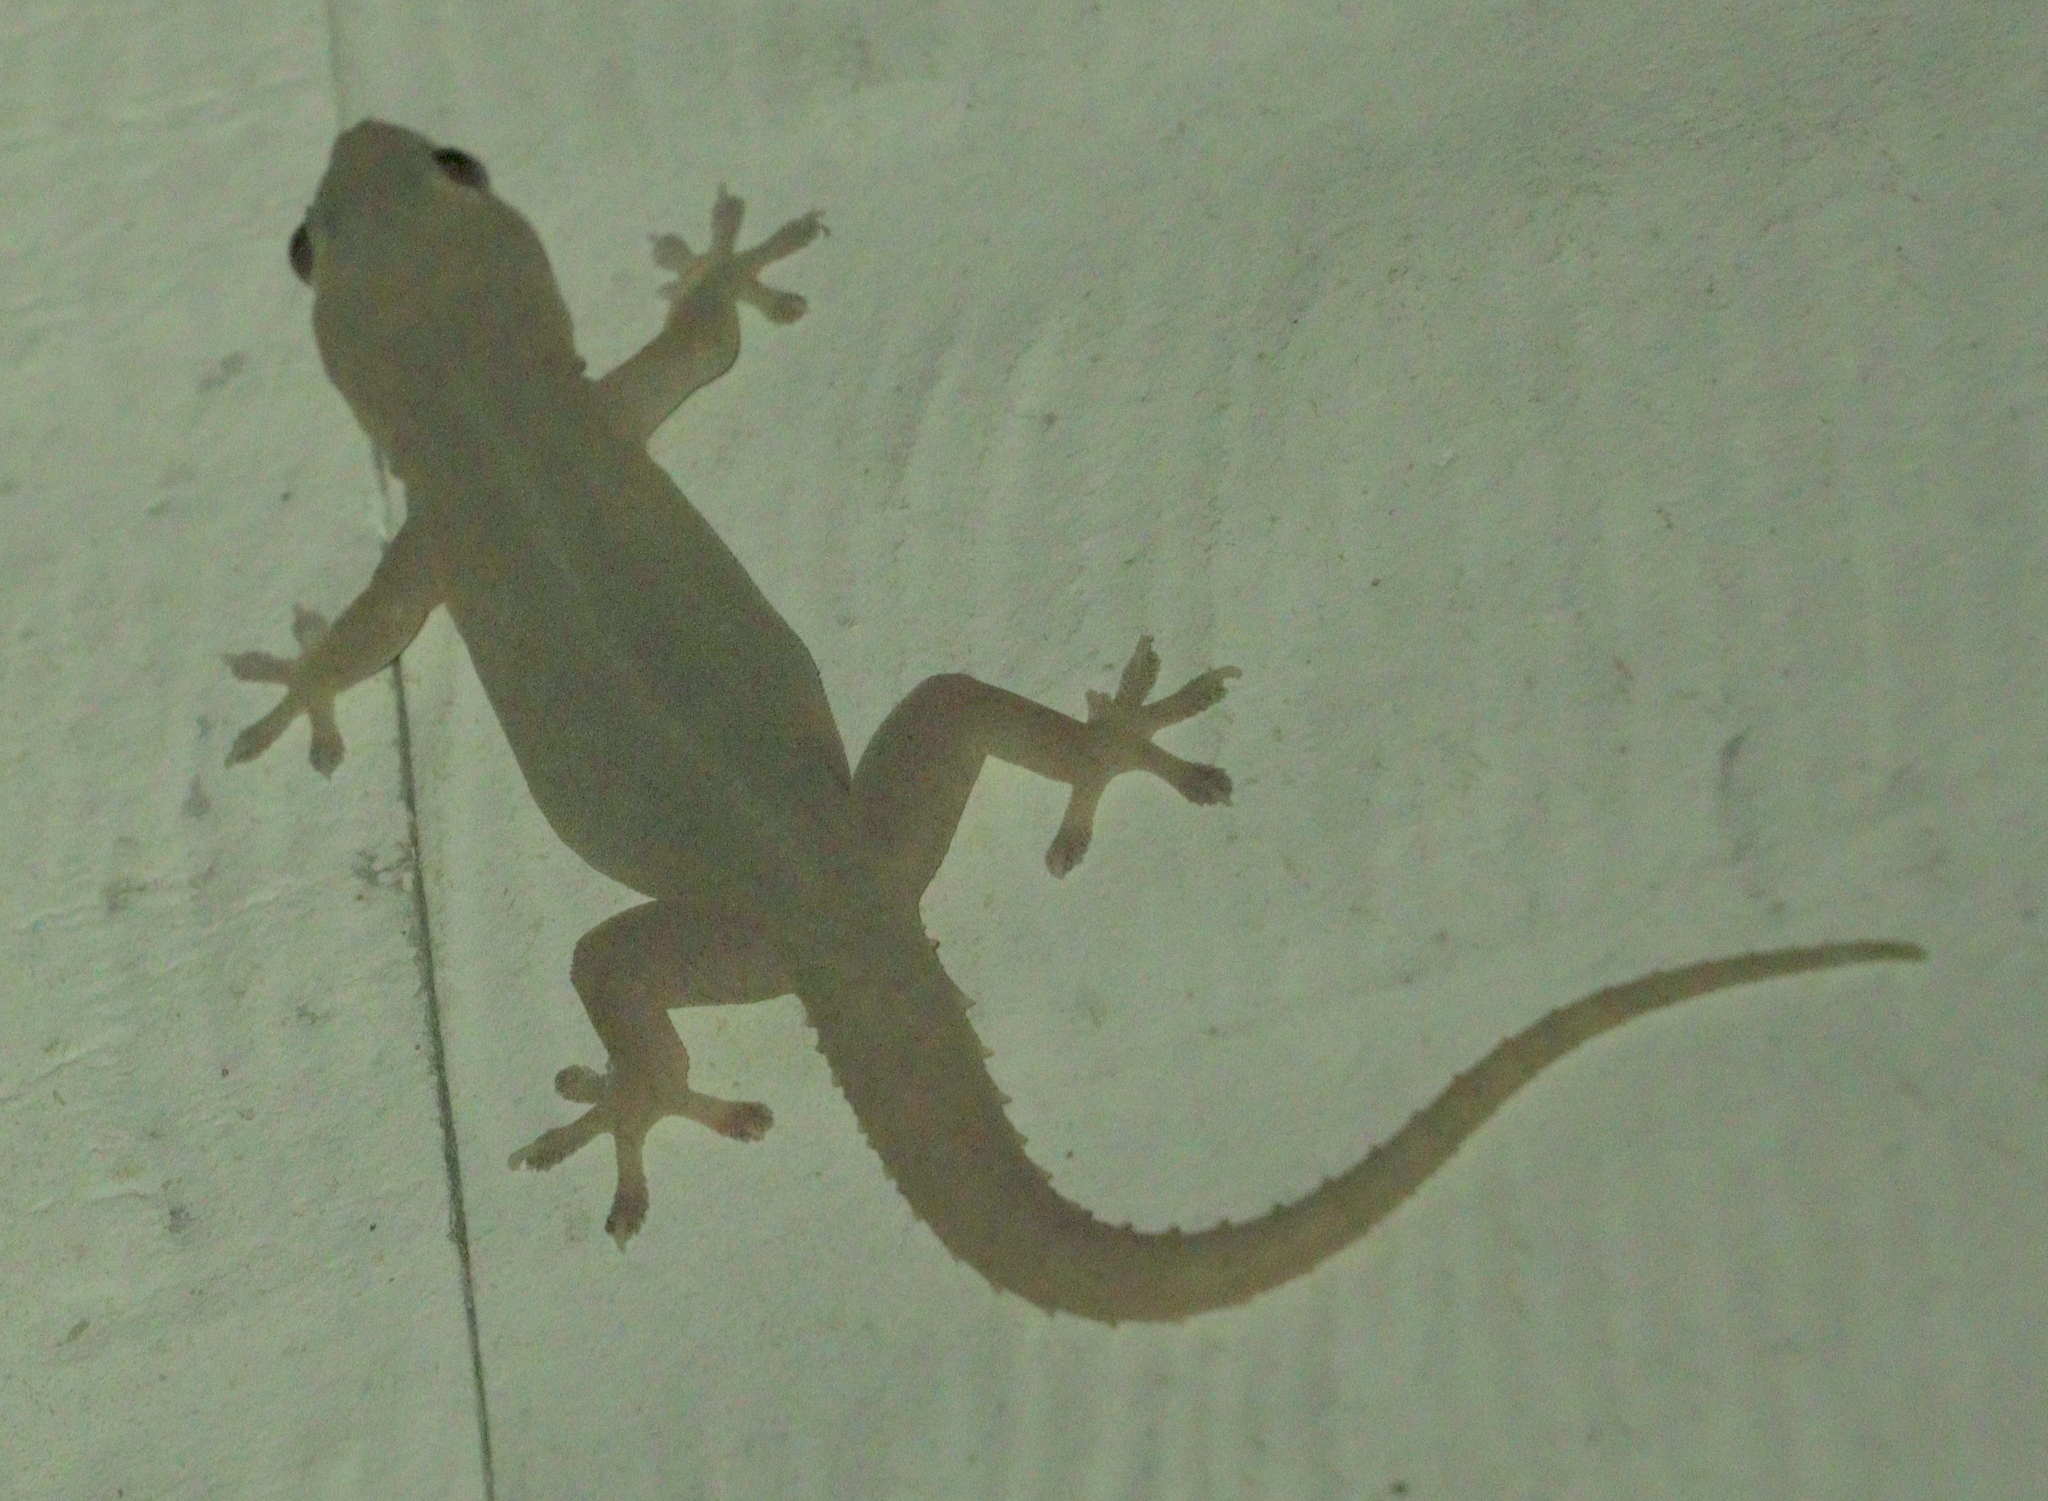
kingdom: Animalia
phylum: Chordata
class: Squamata
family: Gekkonidae
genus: Hemidactylus
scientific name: Hemidactylus frenatus
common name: Common house gecko
